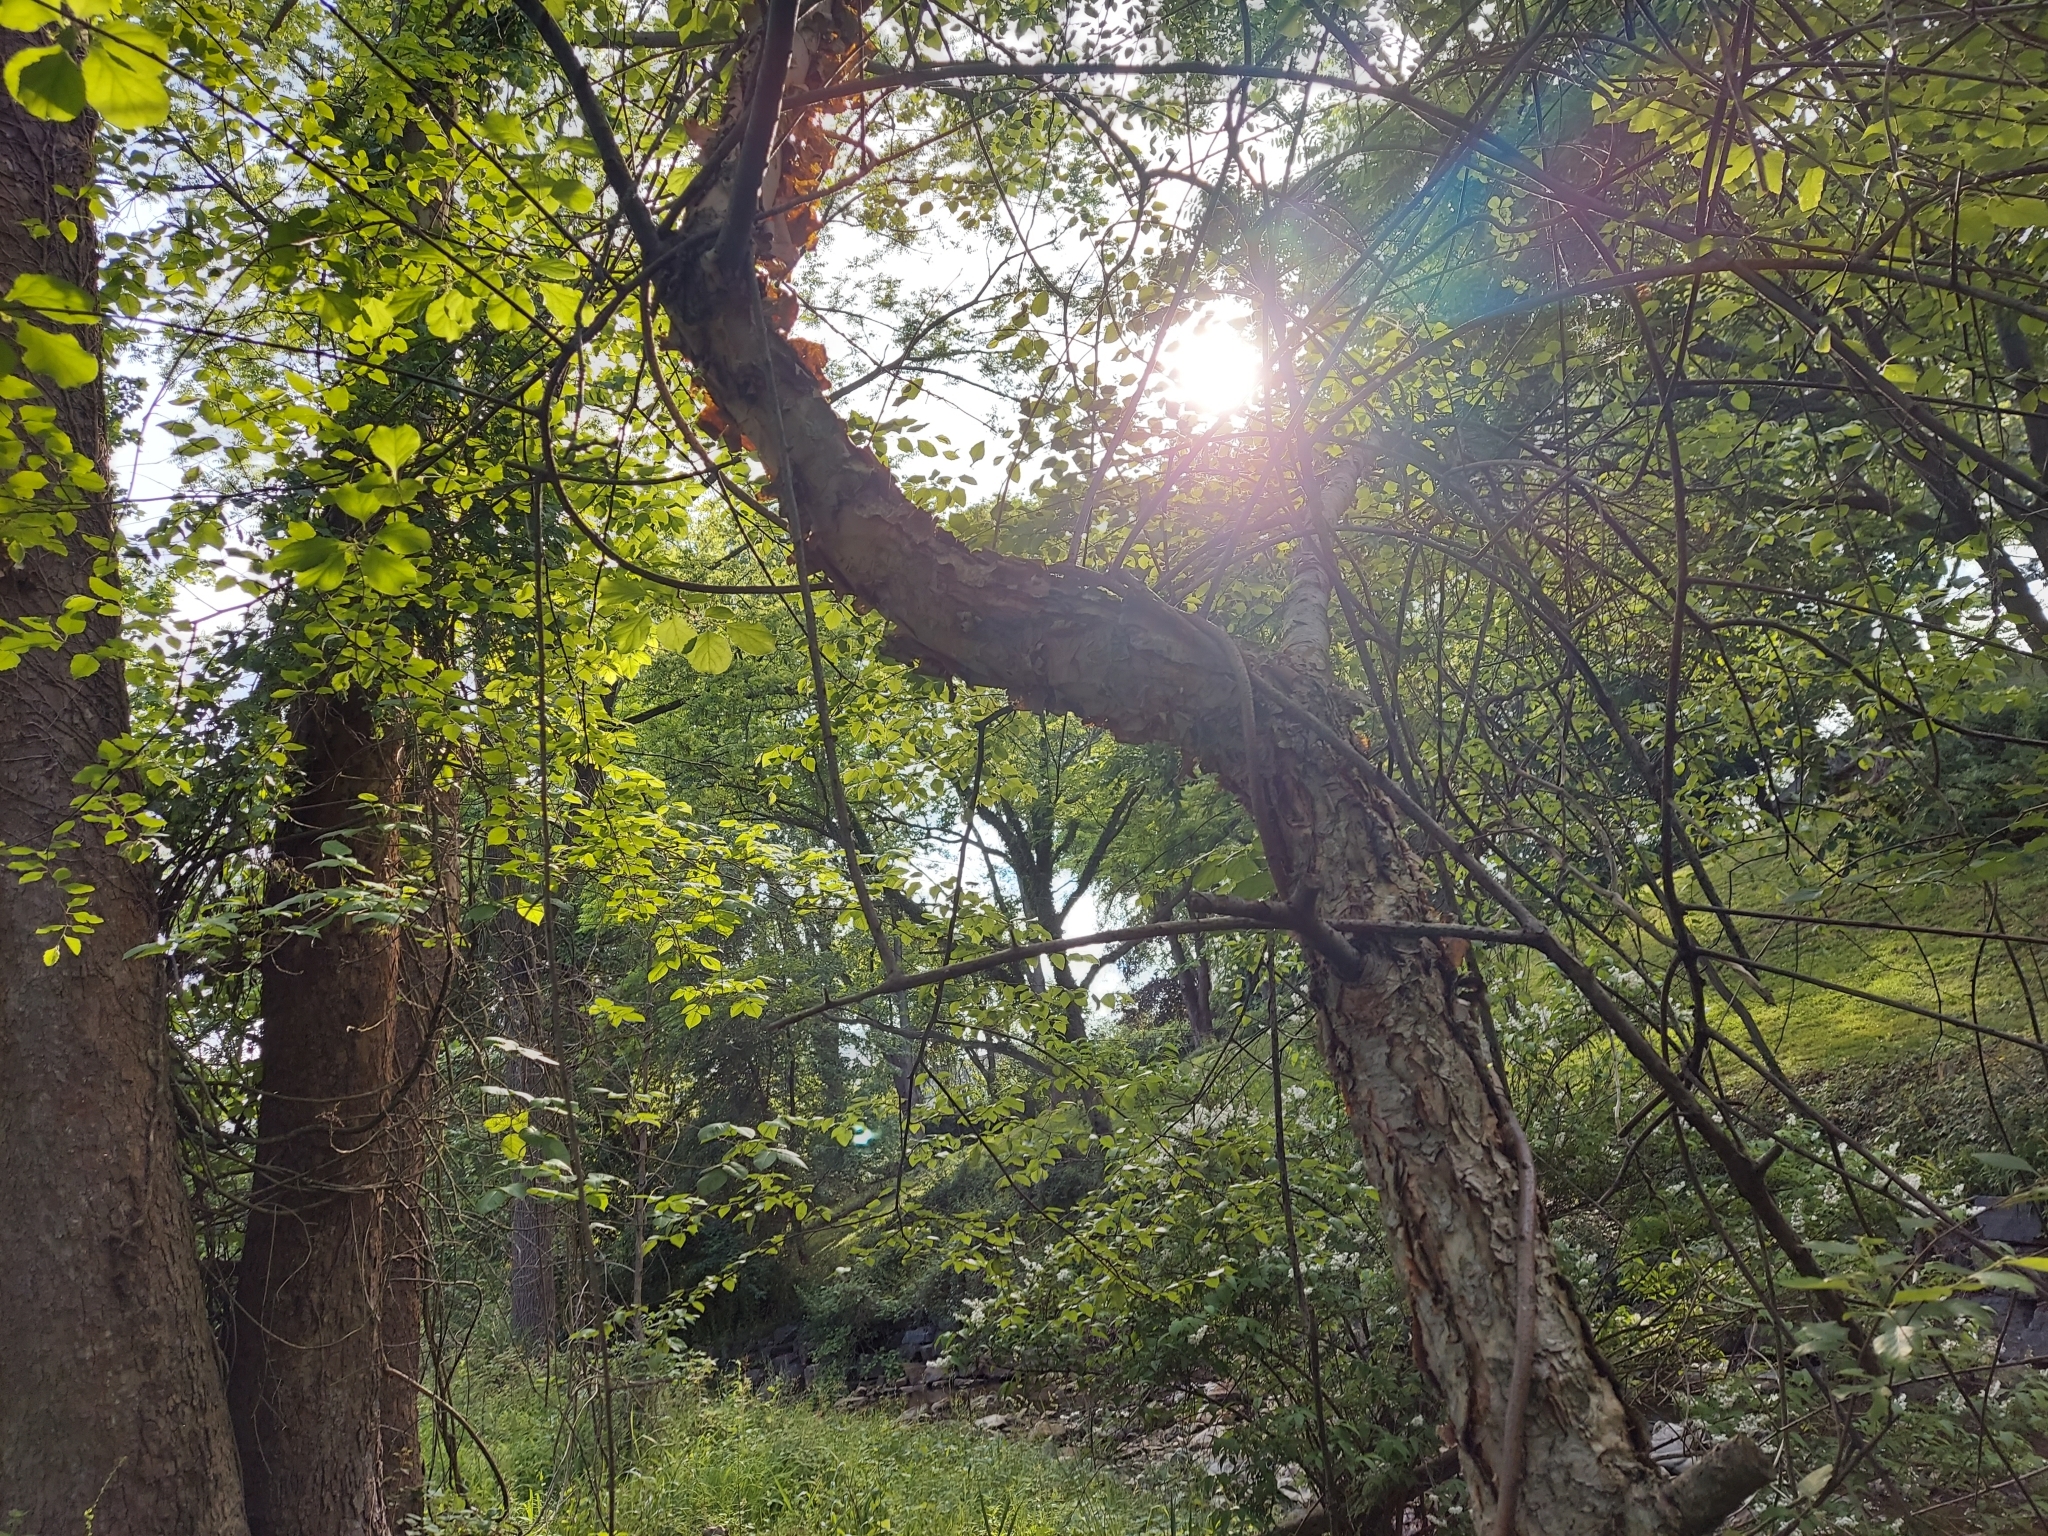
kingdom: Plantae
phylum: Tracheophyta
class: Magnoliopsida
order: Fagales
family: Betulaceae
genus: Betula
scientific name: Betula nigra
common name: Black birch
